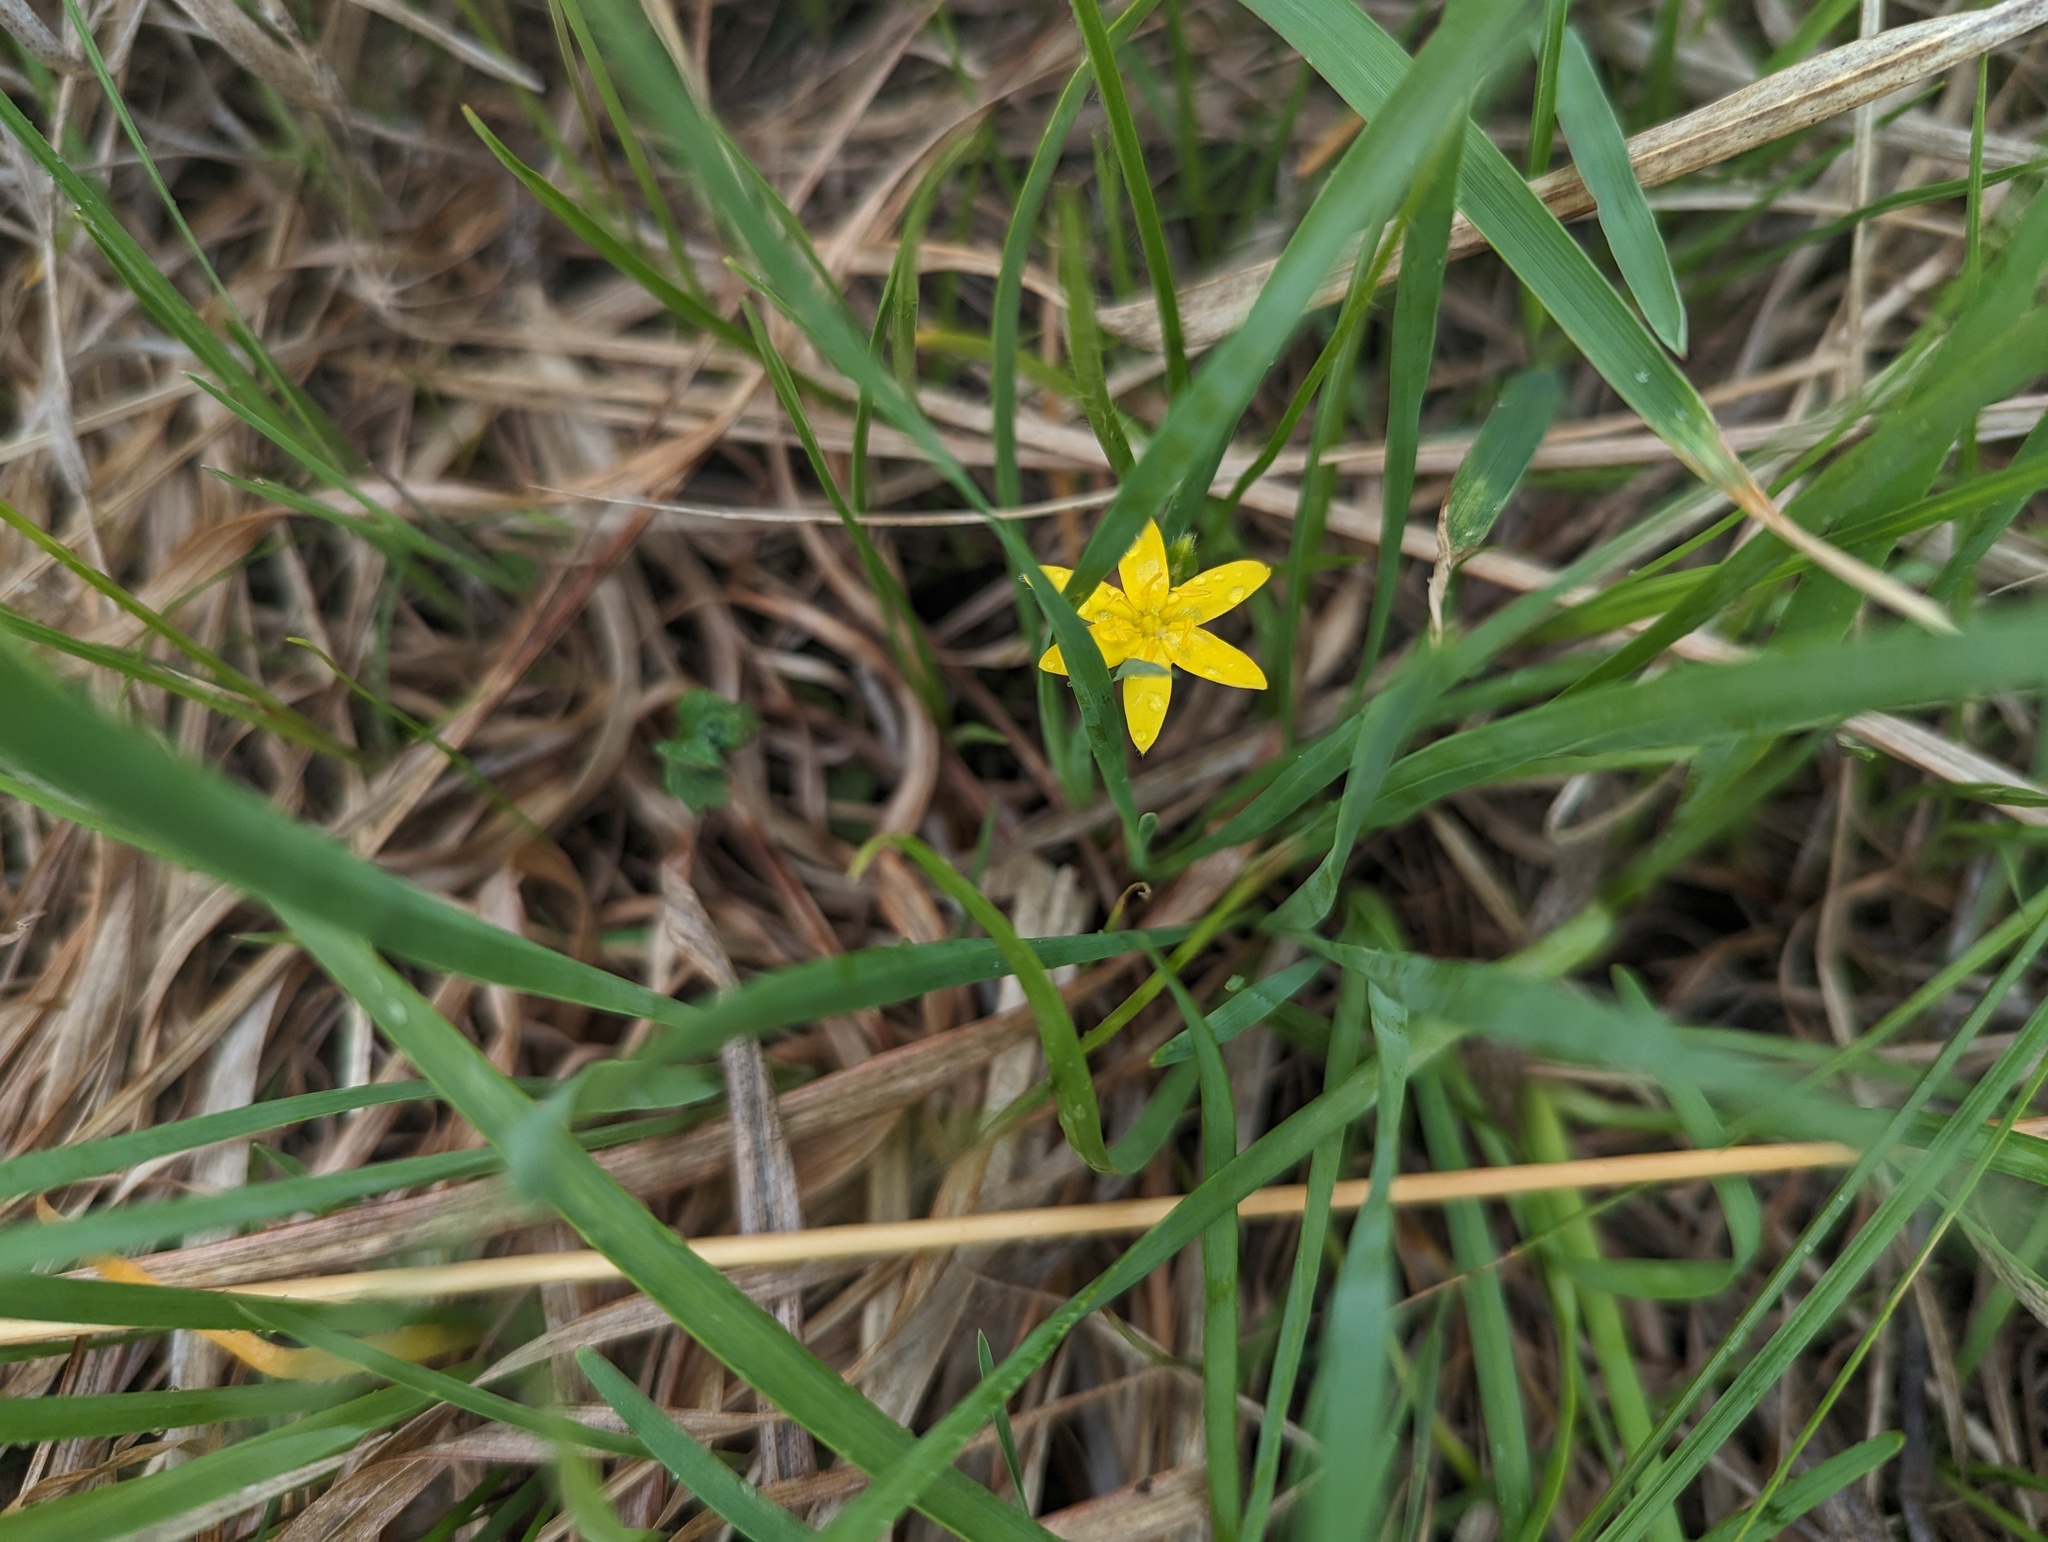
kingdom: Plantae
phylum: Tracheophyta
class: Liliopsida
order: Asparagales
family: Hypoxidaceae
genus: Hypoxis
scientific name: Hypoxis hirsuta
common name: Common goldstar
